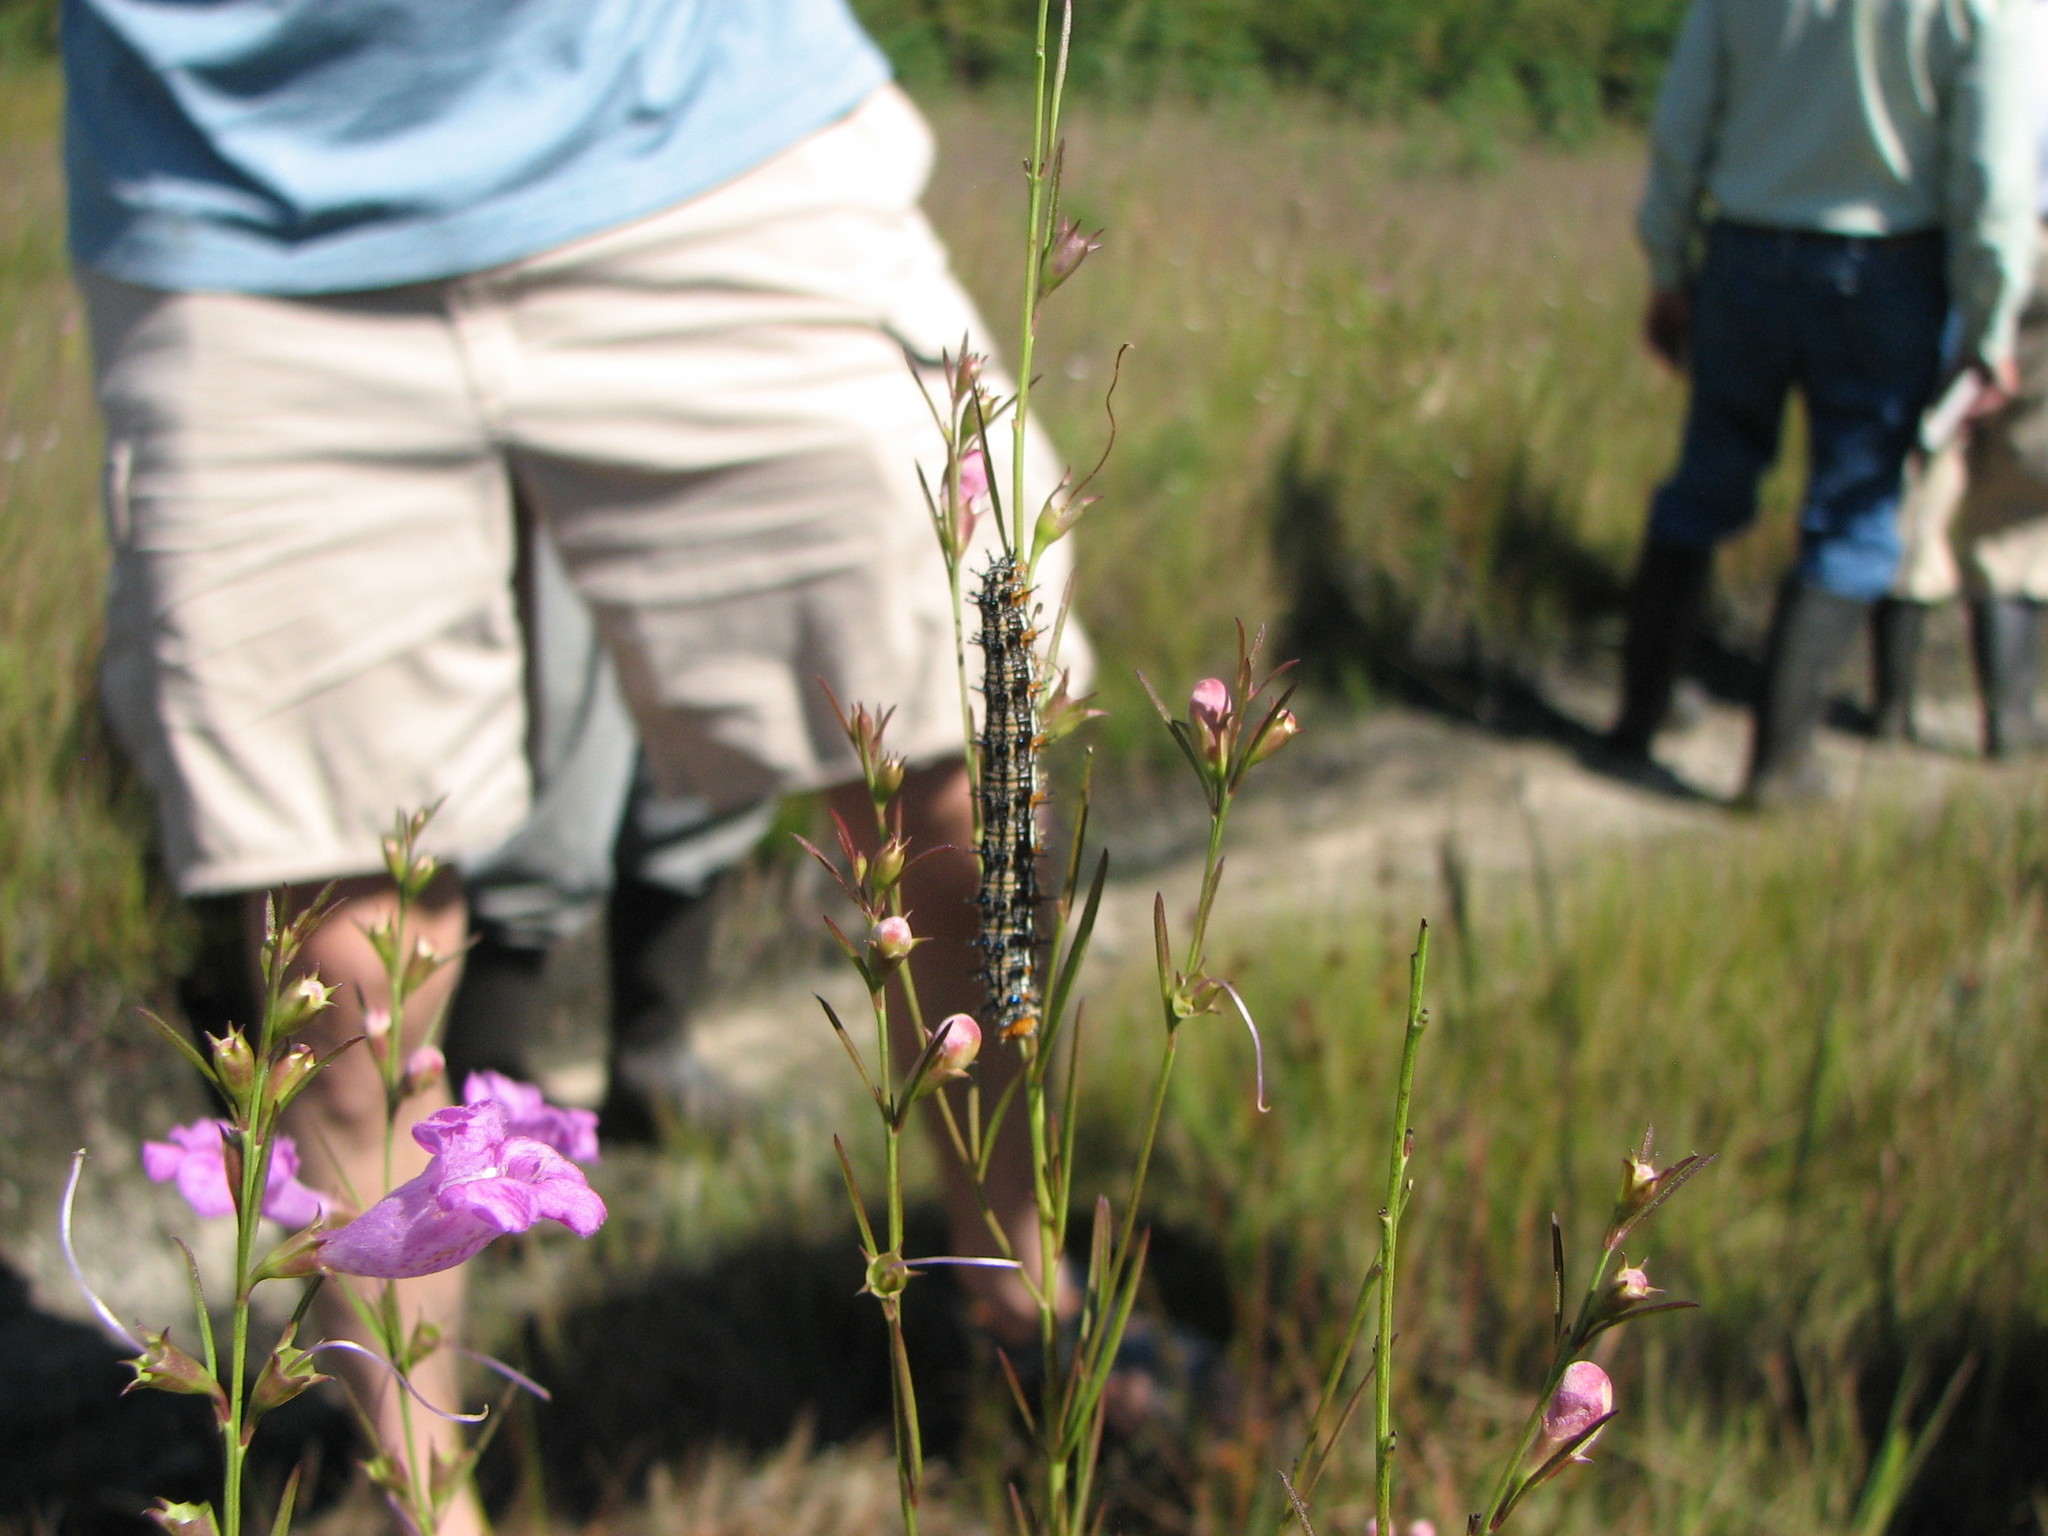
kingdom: Animalia
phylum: Arthropoda
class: Insecta
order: Lepidoptera
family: Nymphalidae
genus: Junonia
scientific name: Junonia coenia
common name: Common buckeye
